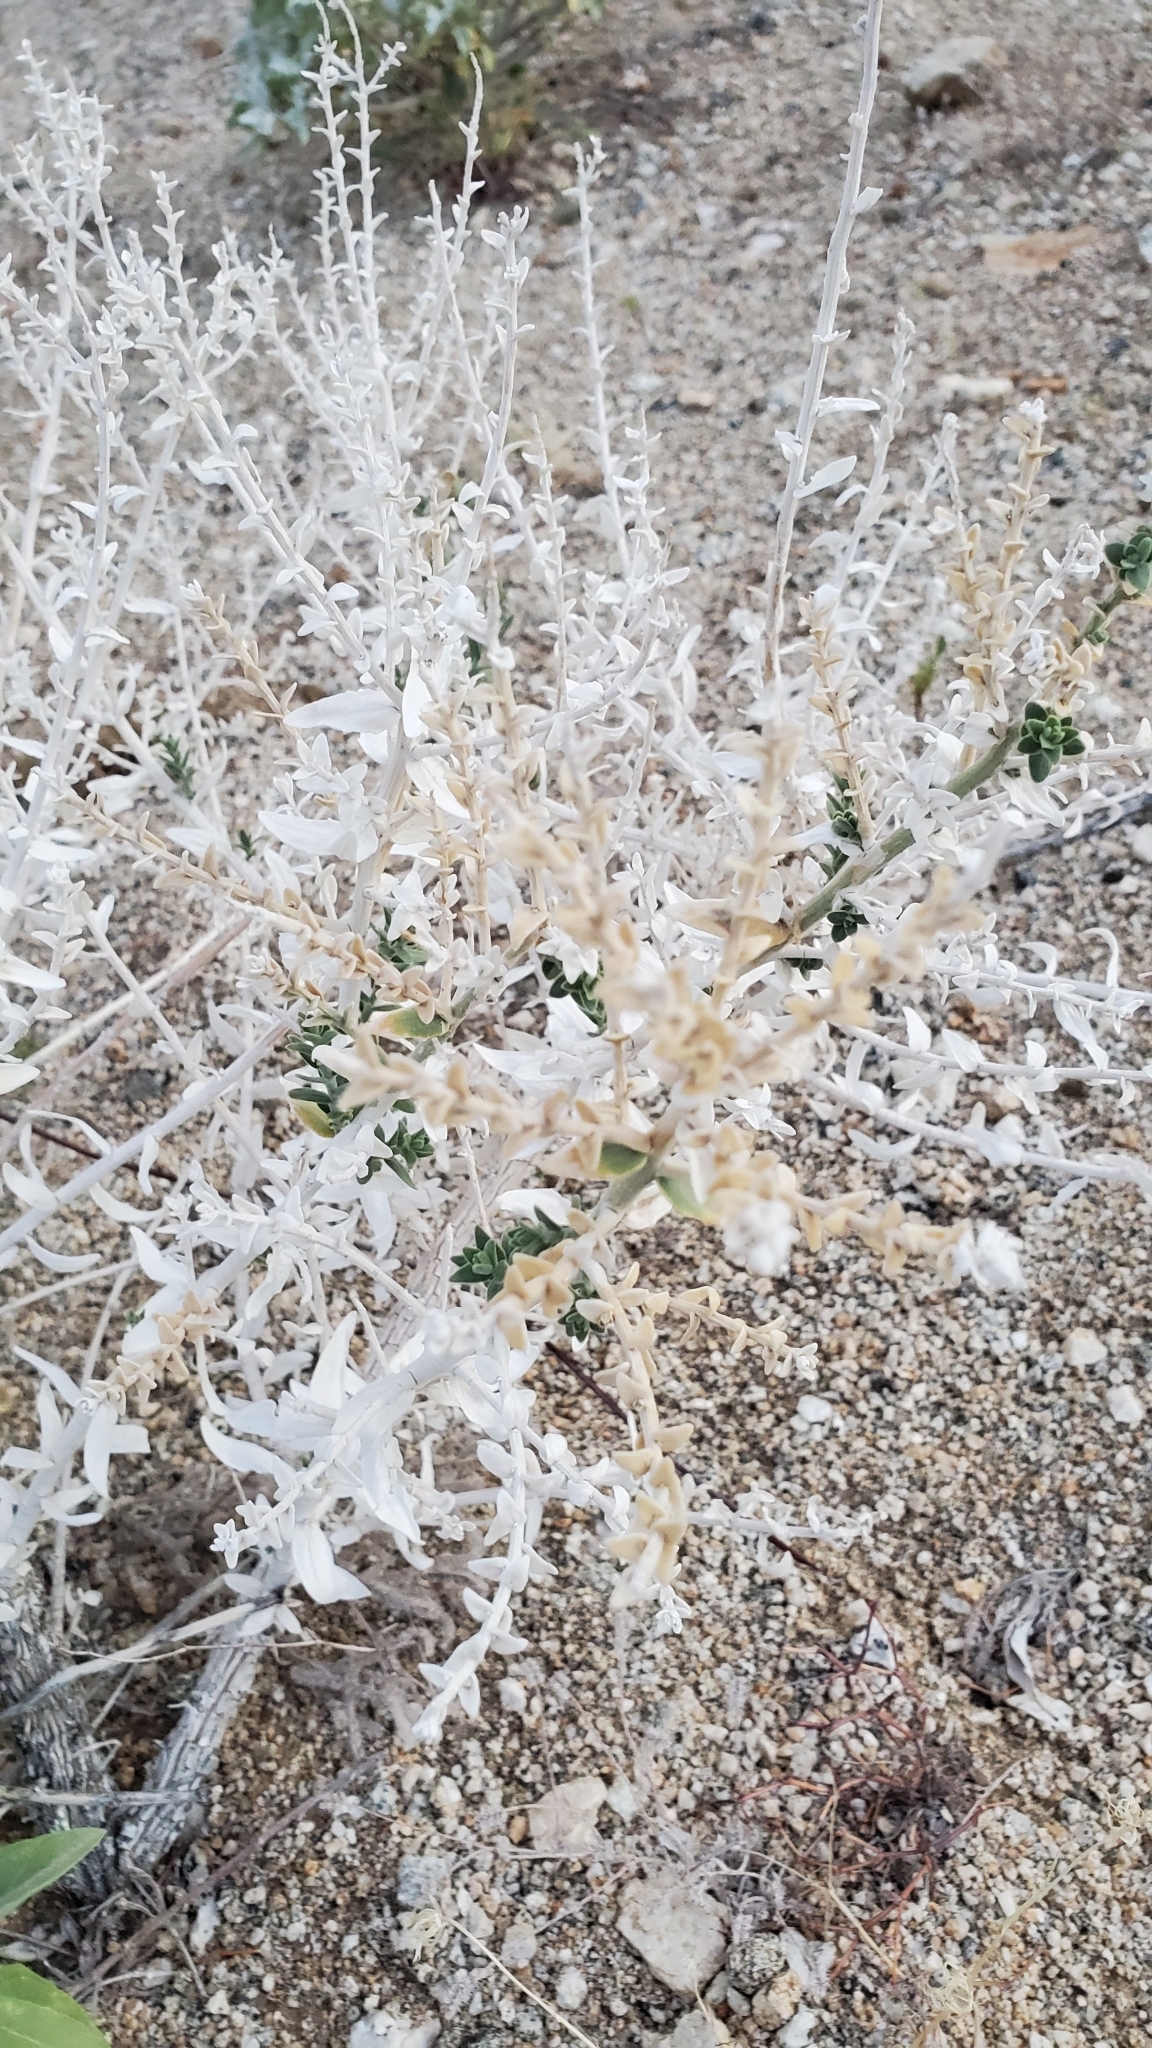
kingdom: Plantae
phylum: Tracheophyta
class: Magnoliopsida
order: Cornales
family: Loasaceae
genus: Petalonyx
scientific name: Petalonyx thurberi
